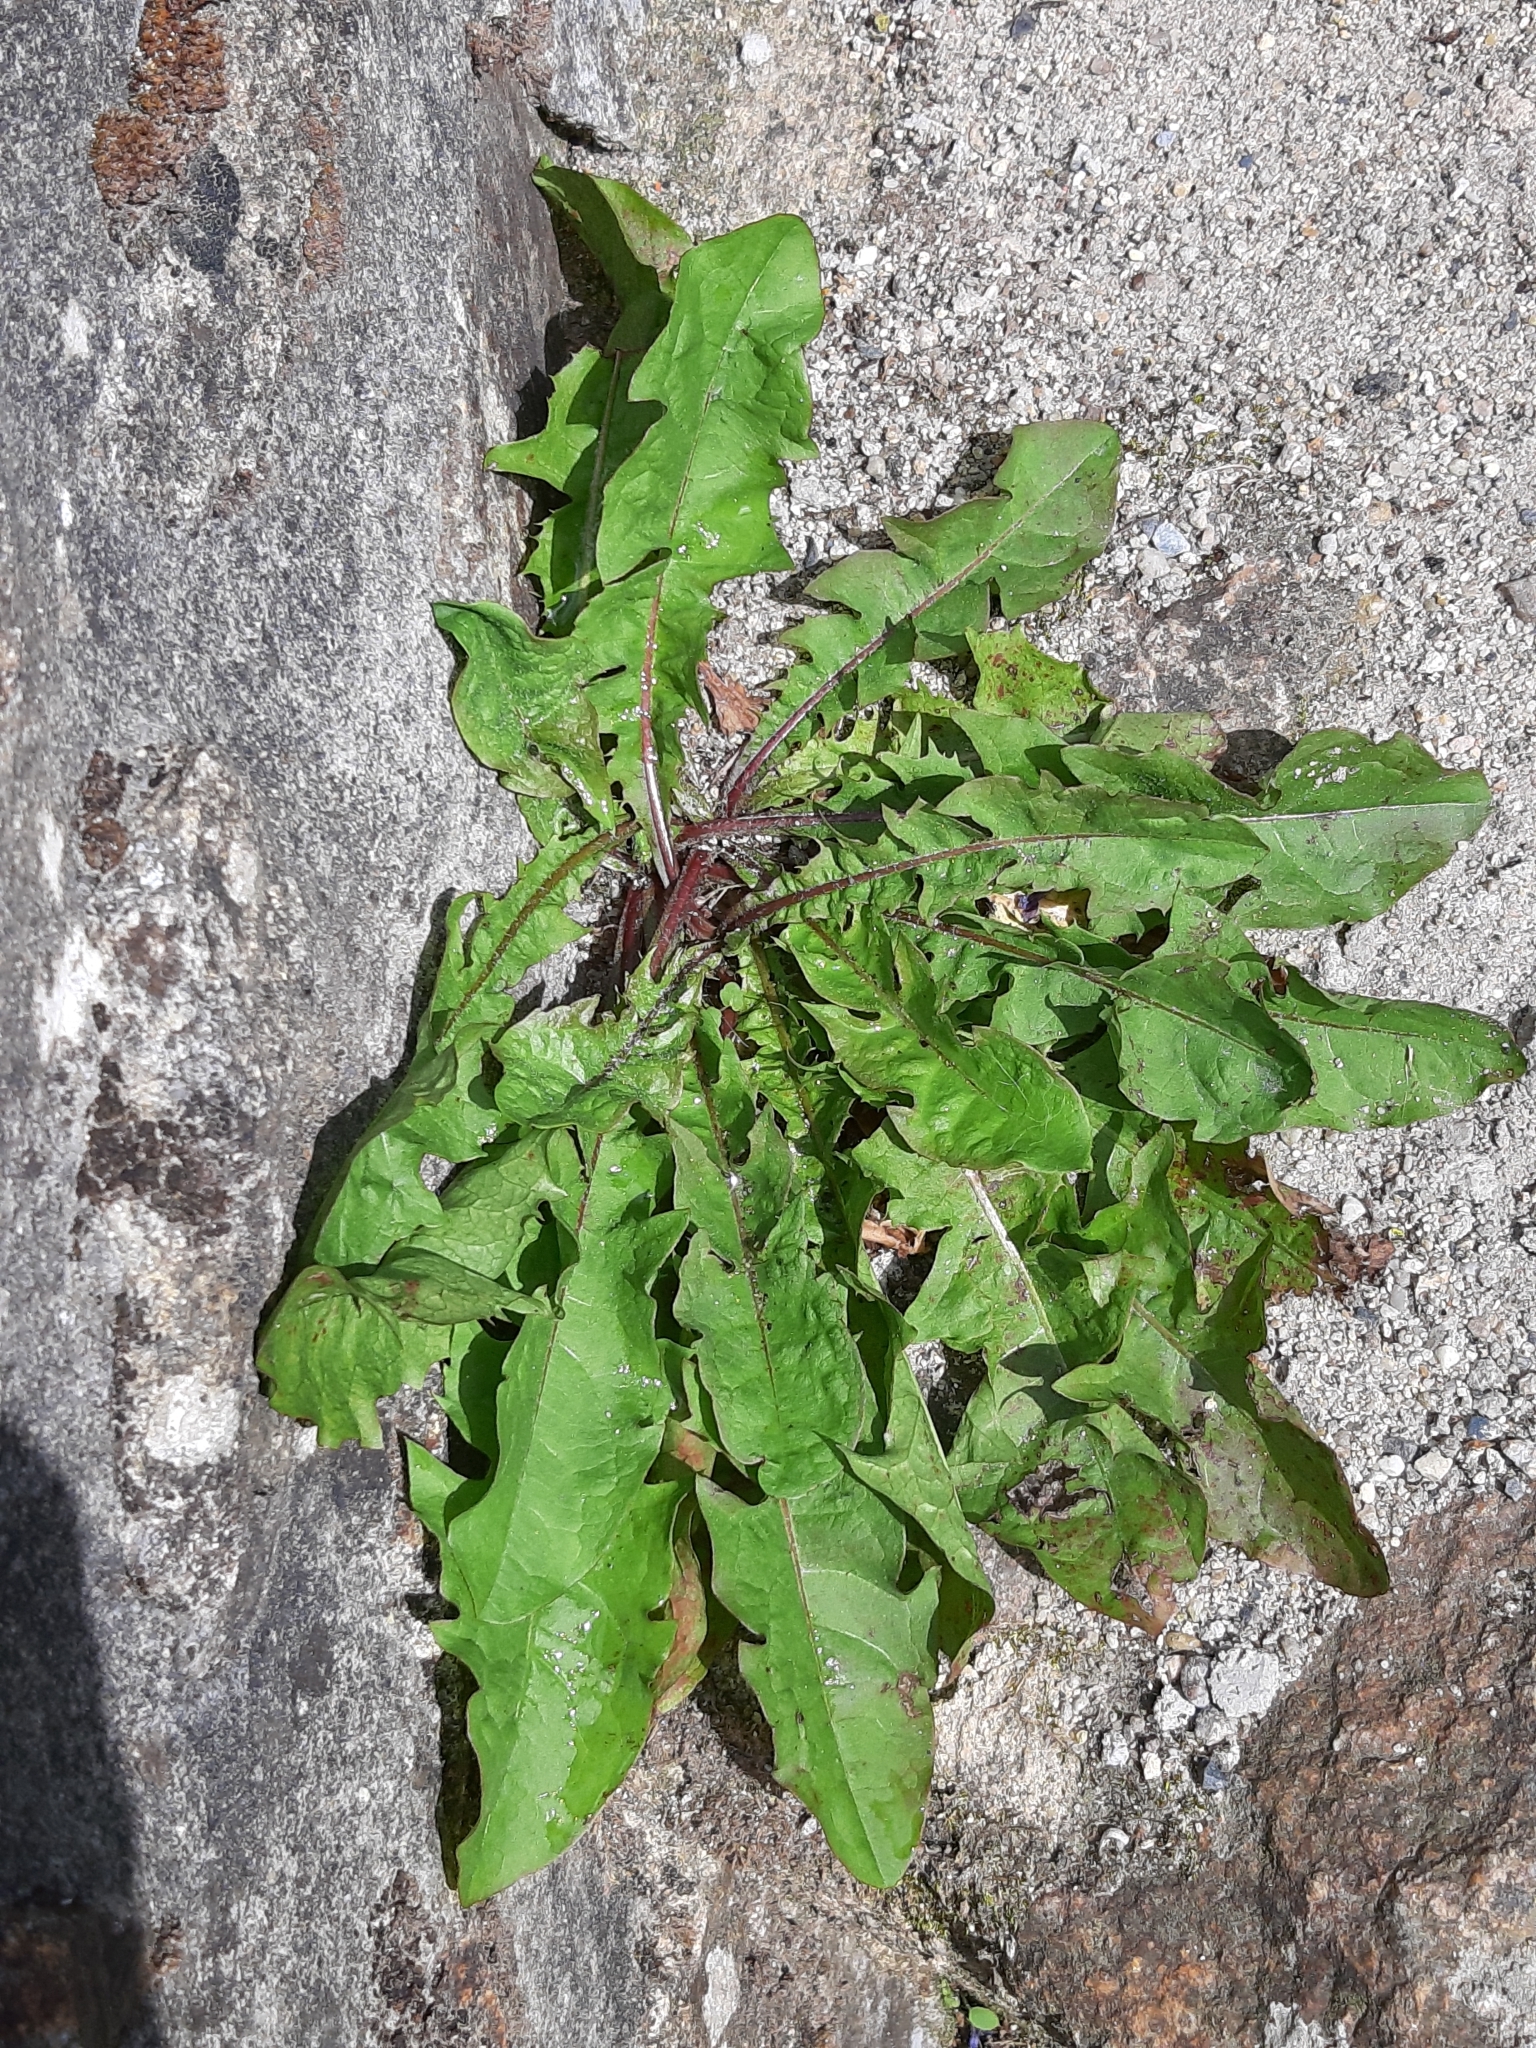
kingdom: Plantae
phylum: Tracheophyta
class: Magnoliopsida
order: Asterales
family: Asteraceae
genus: Taraxacum
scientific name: Taraxacum officinale
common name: Common dandelion
